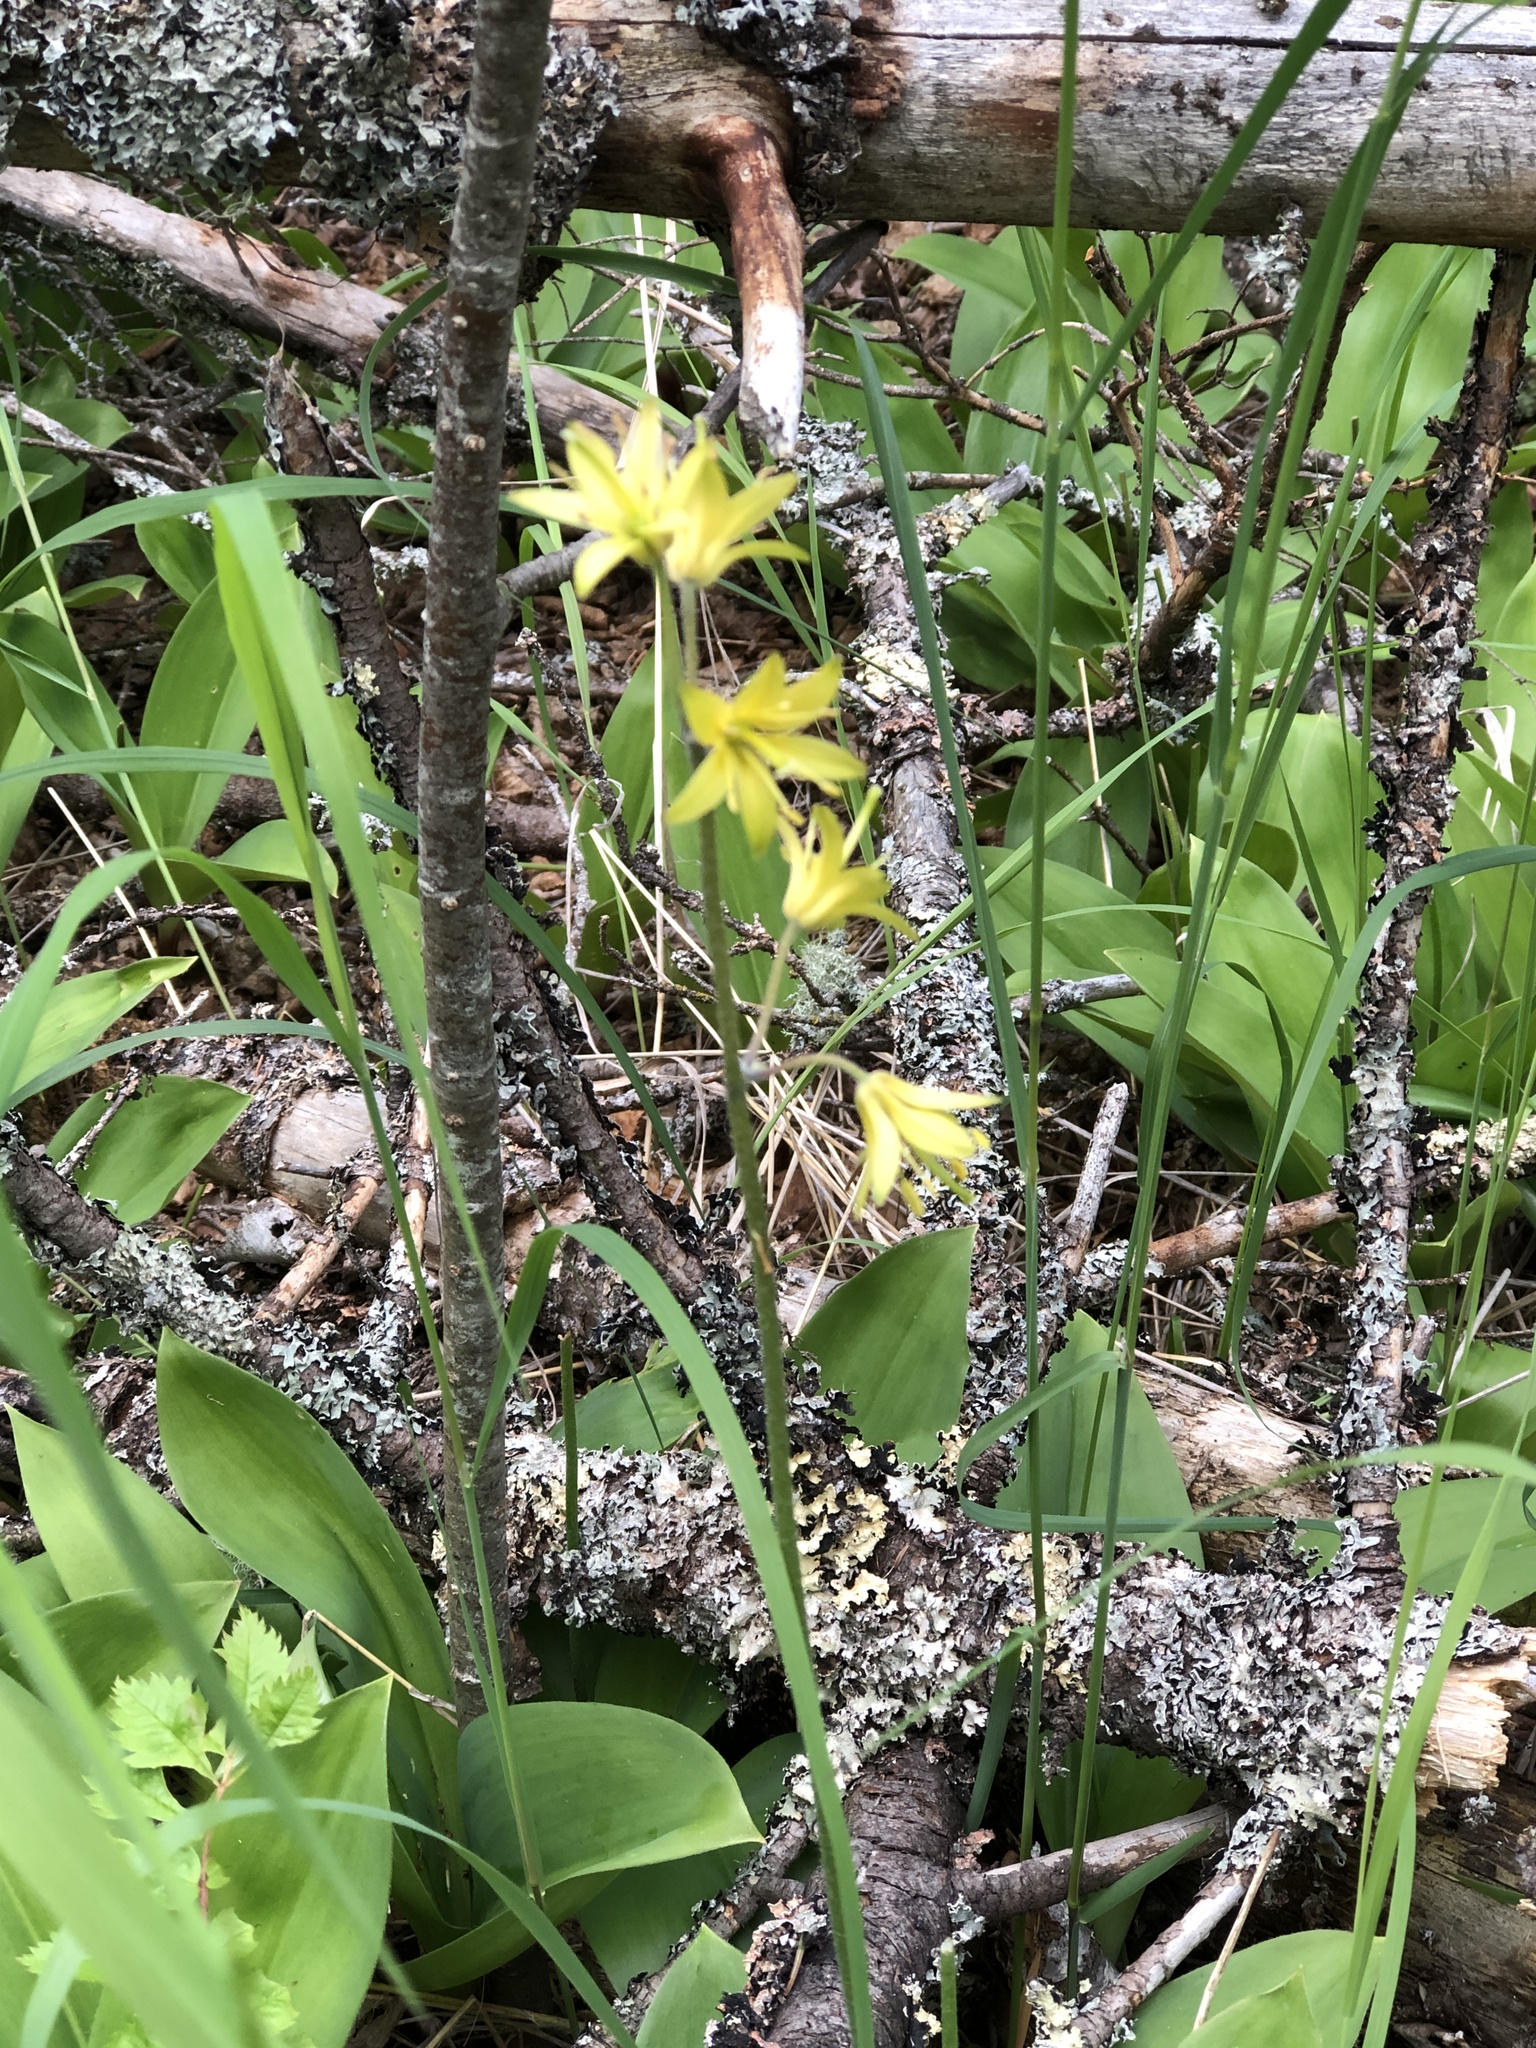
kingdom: Plantae
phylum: Tracheophyta
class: Liliopsida
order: Liliales
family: Liliaceae
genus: Clintonia
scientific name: Clintonia borealis
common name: Yellow clintonia
